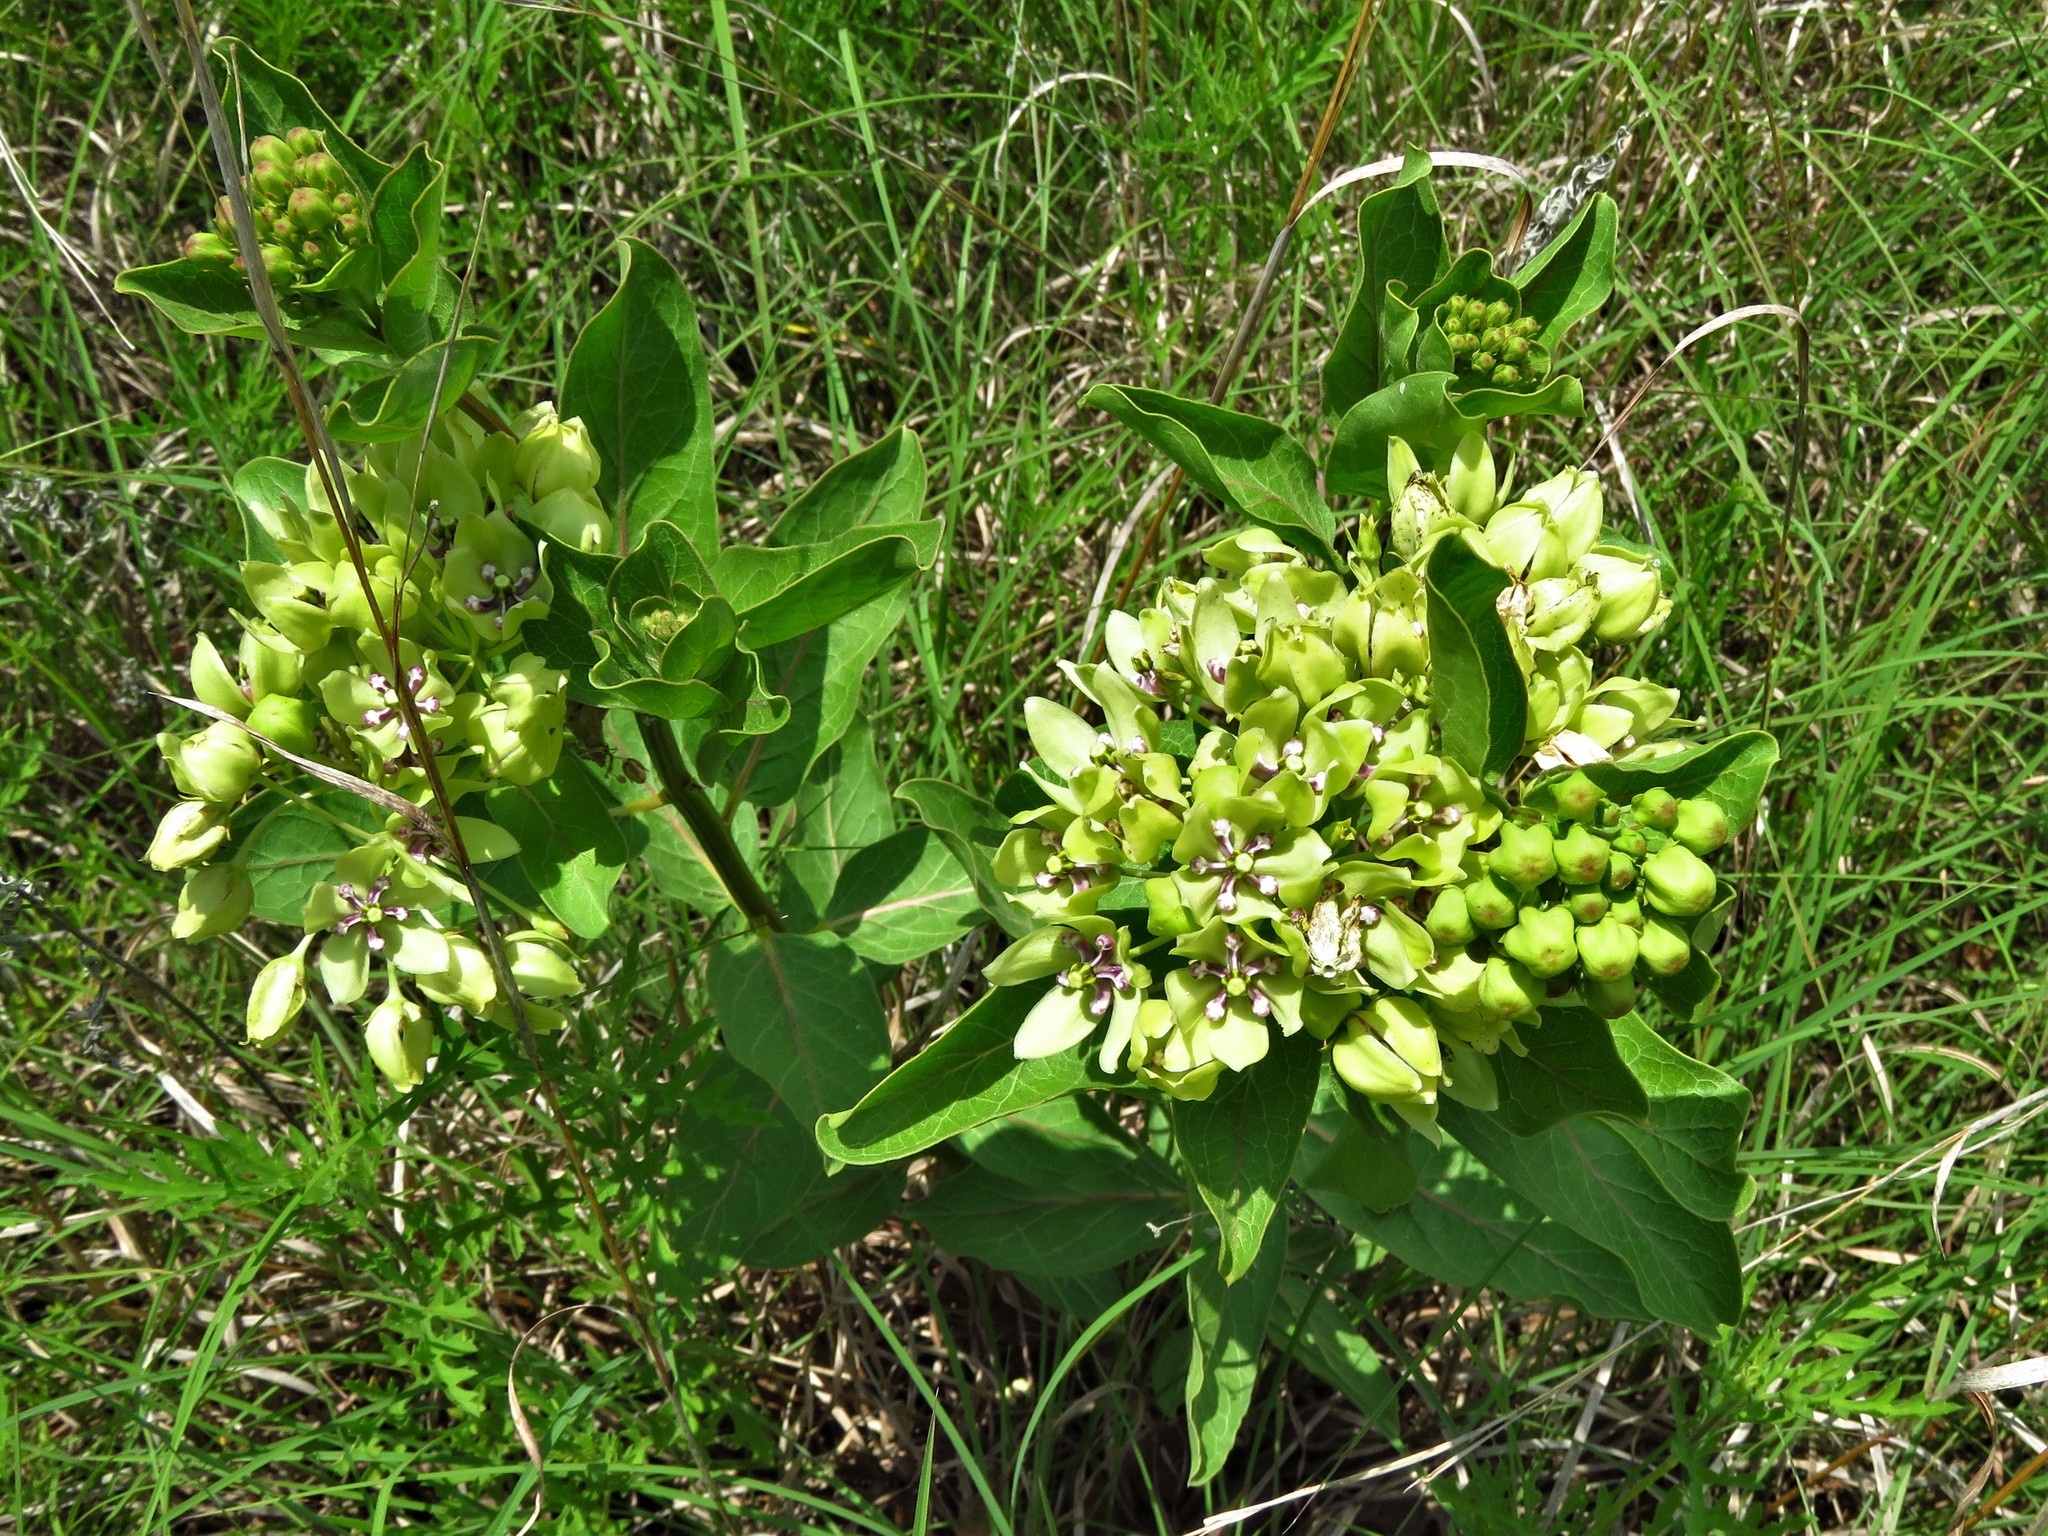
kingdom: Plantae
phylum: Tracheophyta
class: Magnoliopsida
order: Gentianales
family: Apocynaceae
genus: Asclepias
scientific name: Asclepias viridis
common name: Antelope-horns
